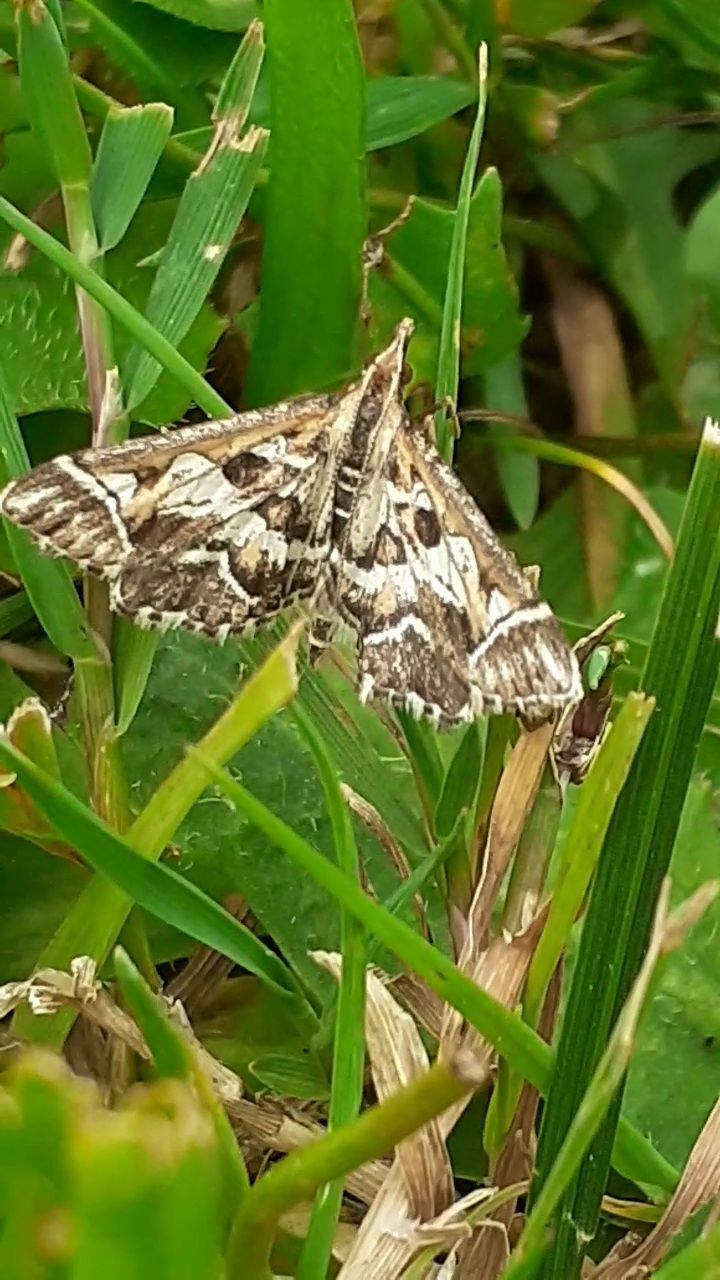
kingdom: Animalia
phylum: Arthropoda
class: Insecta
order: Lepidoptera
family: Crambidae
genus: Diasemia
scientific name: Diasemia reticularis
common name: Lettered china-mark
